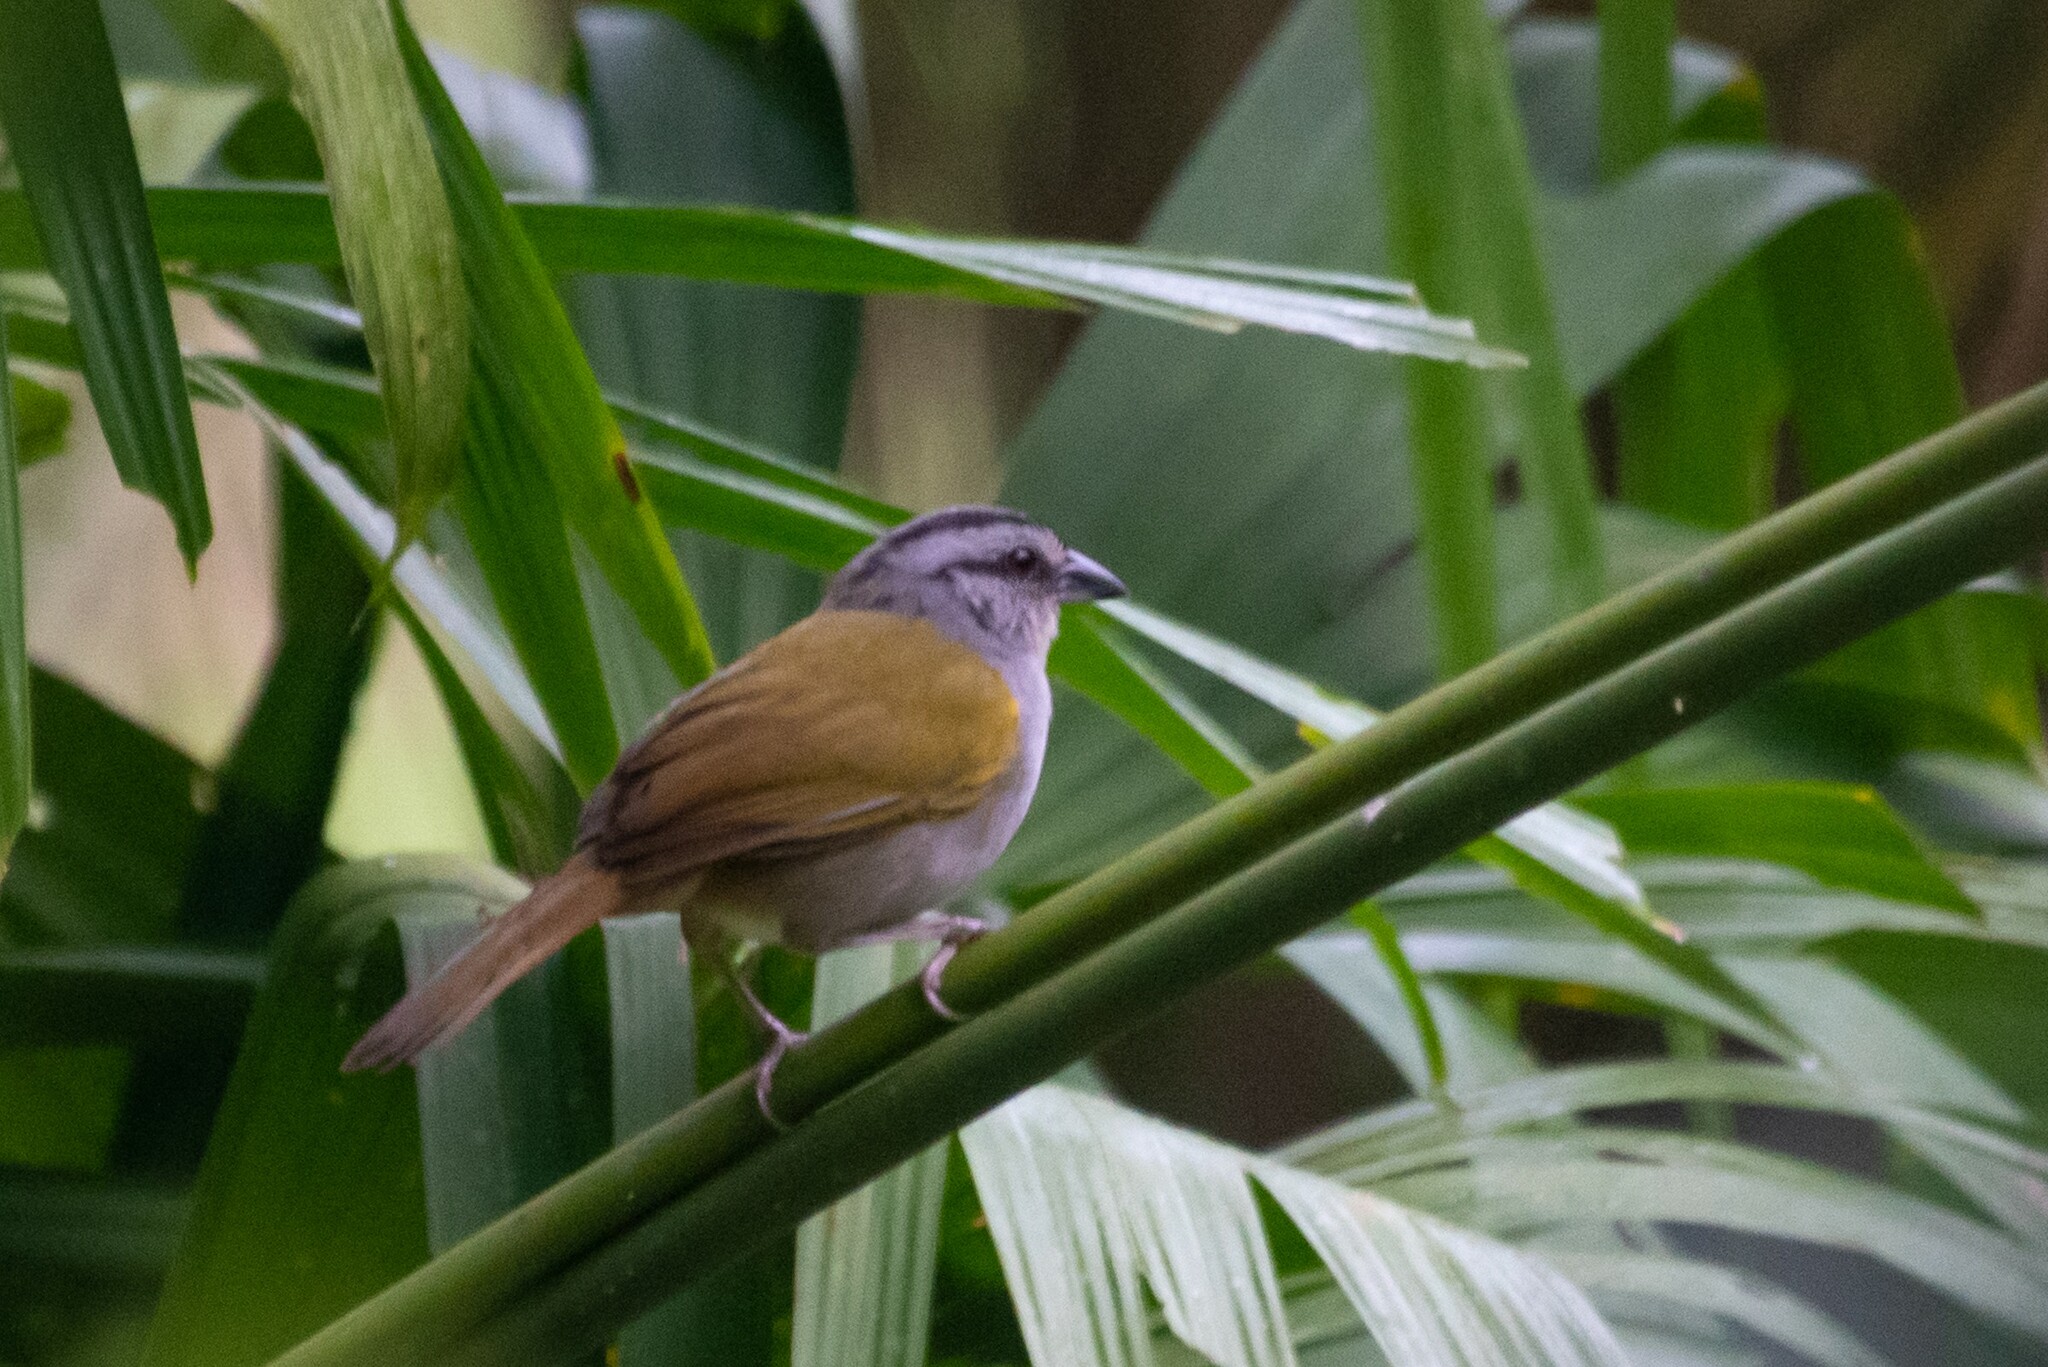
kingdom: Animalia
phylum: Chordata
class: Aves
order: Passeriformes
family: Passerellidae
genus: Arremonops
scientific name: Arremonops conirostris
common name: Black-striped sparrow
